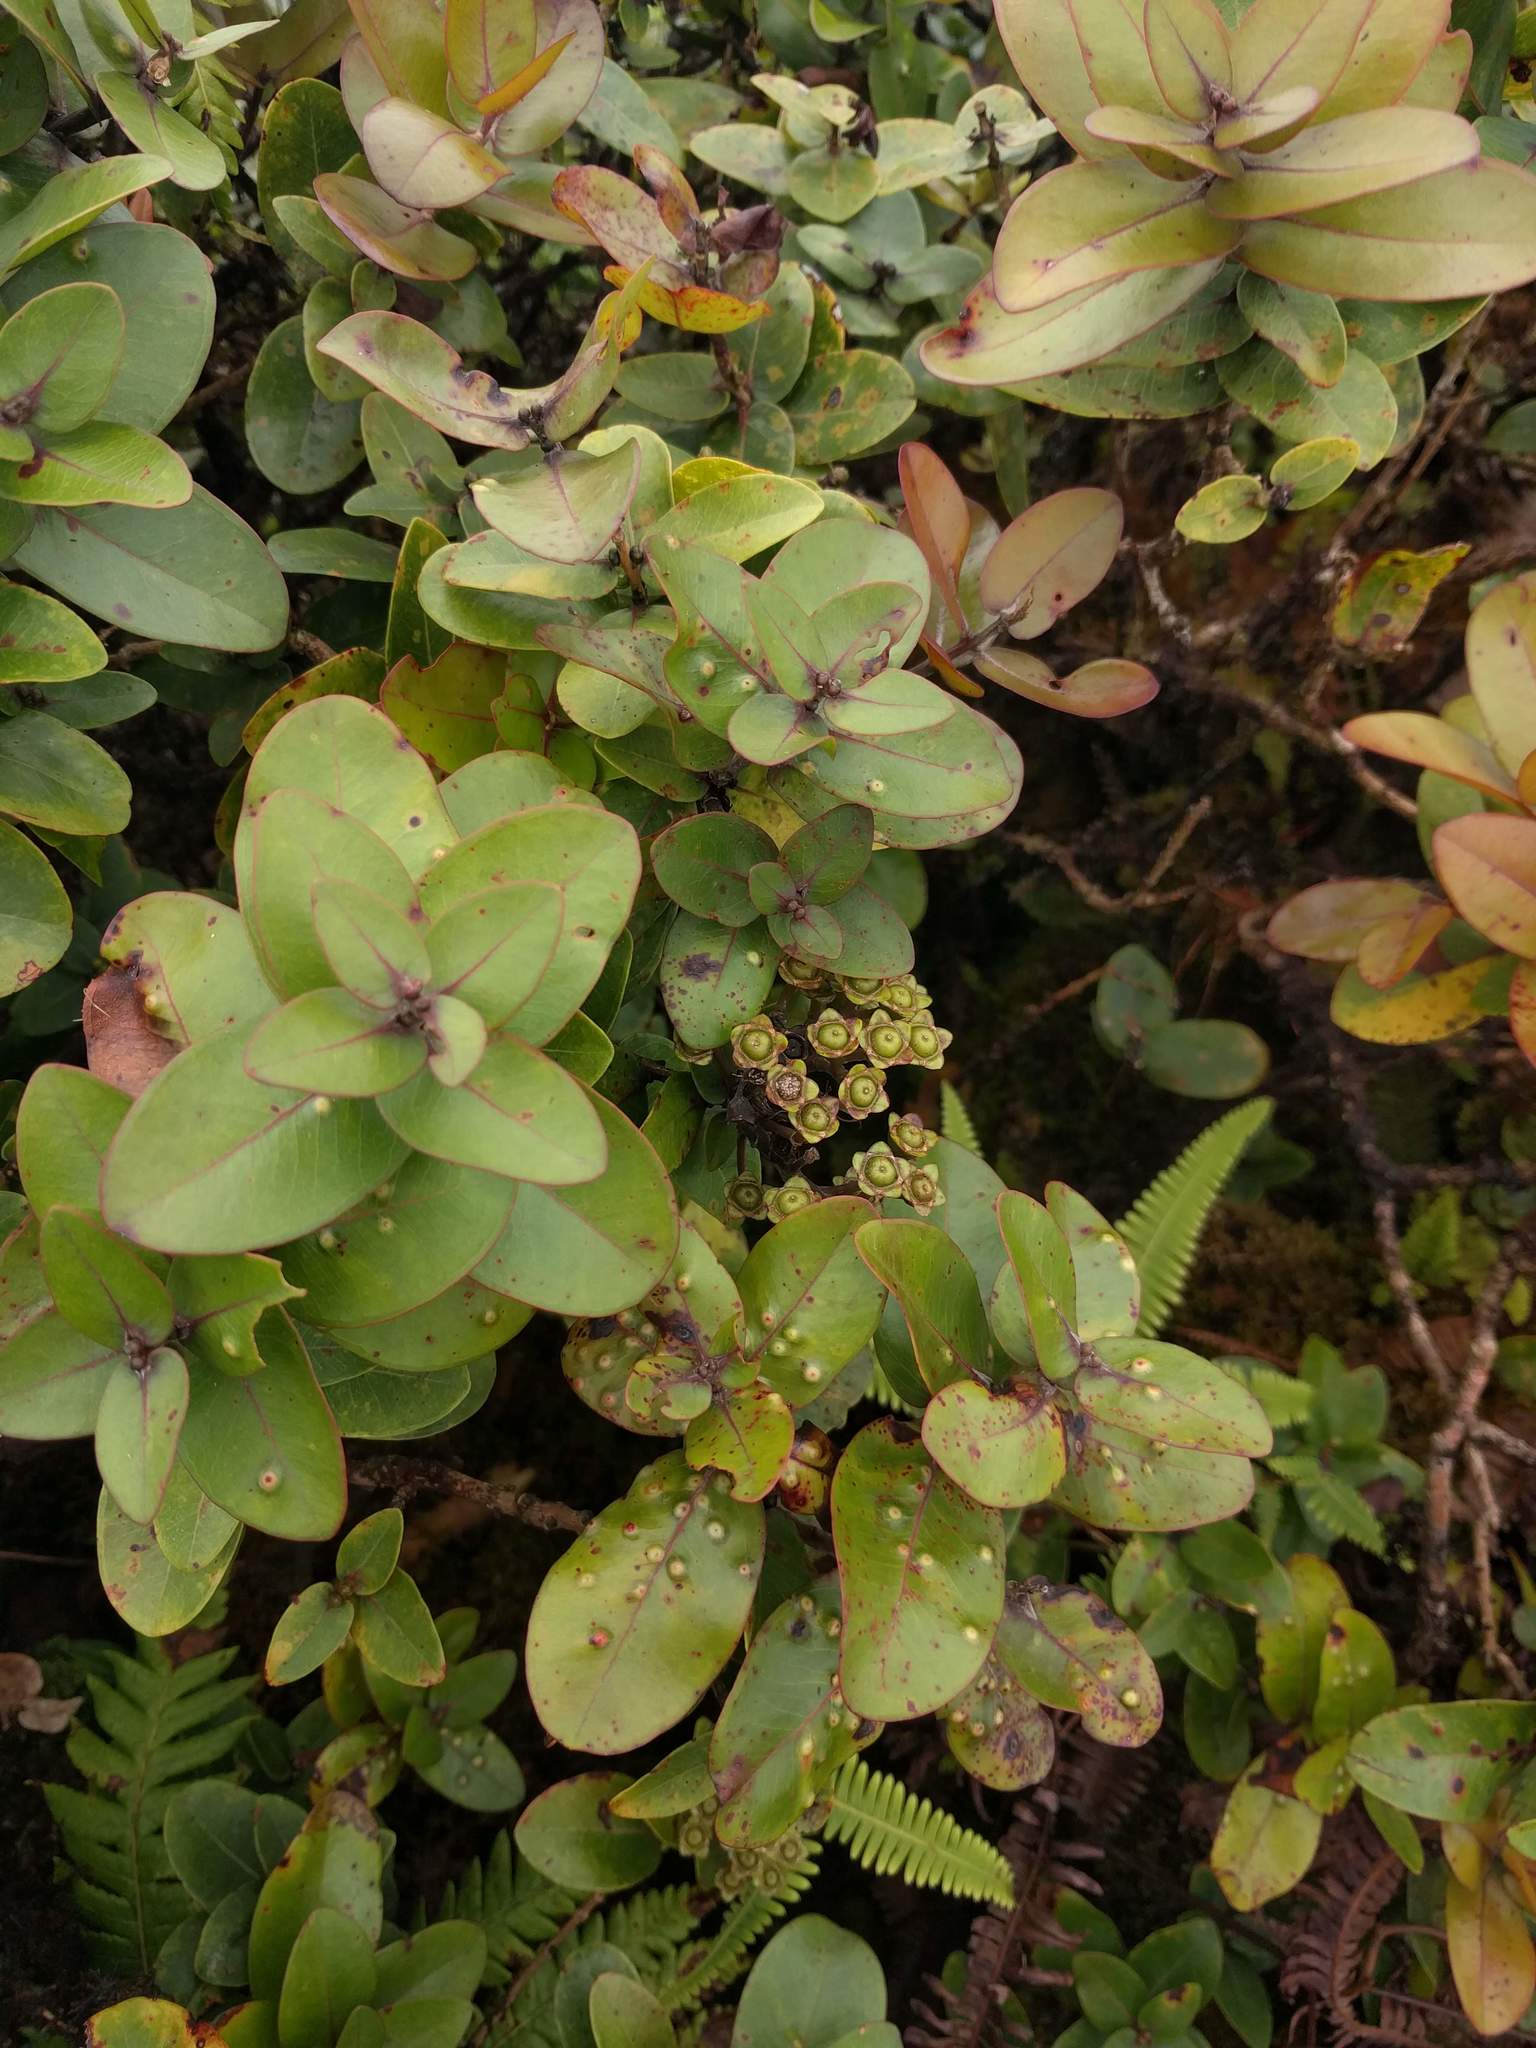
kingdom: Plantae
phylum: Tracheophyta
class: Magnoliopsida
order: Myrtales
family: Myrtaceae
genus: Metrosideros
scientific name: Metrosideros polymorpha
